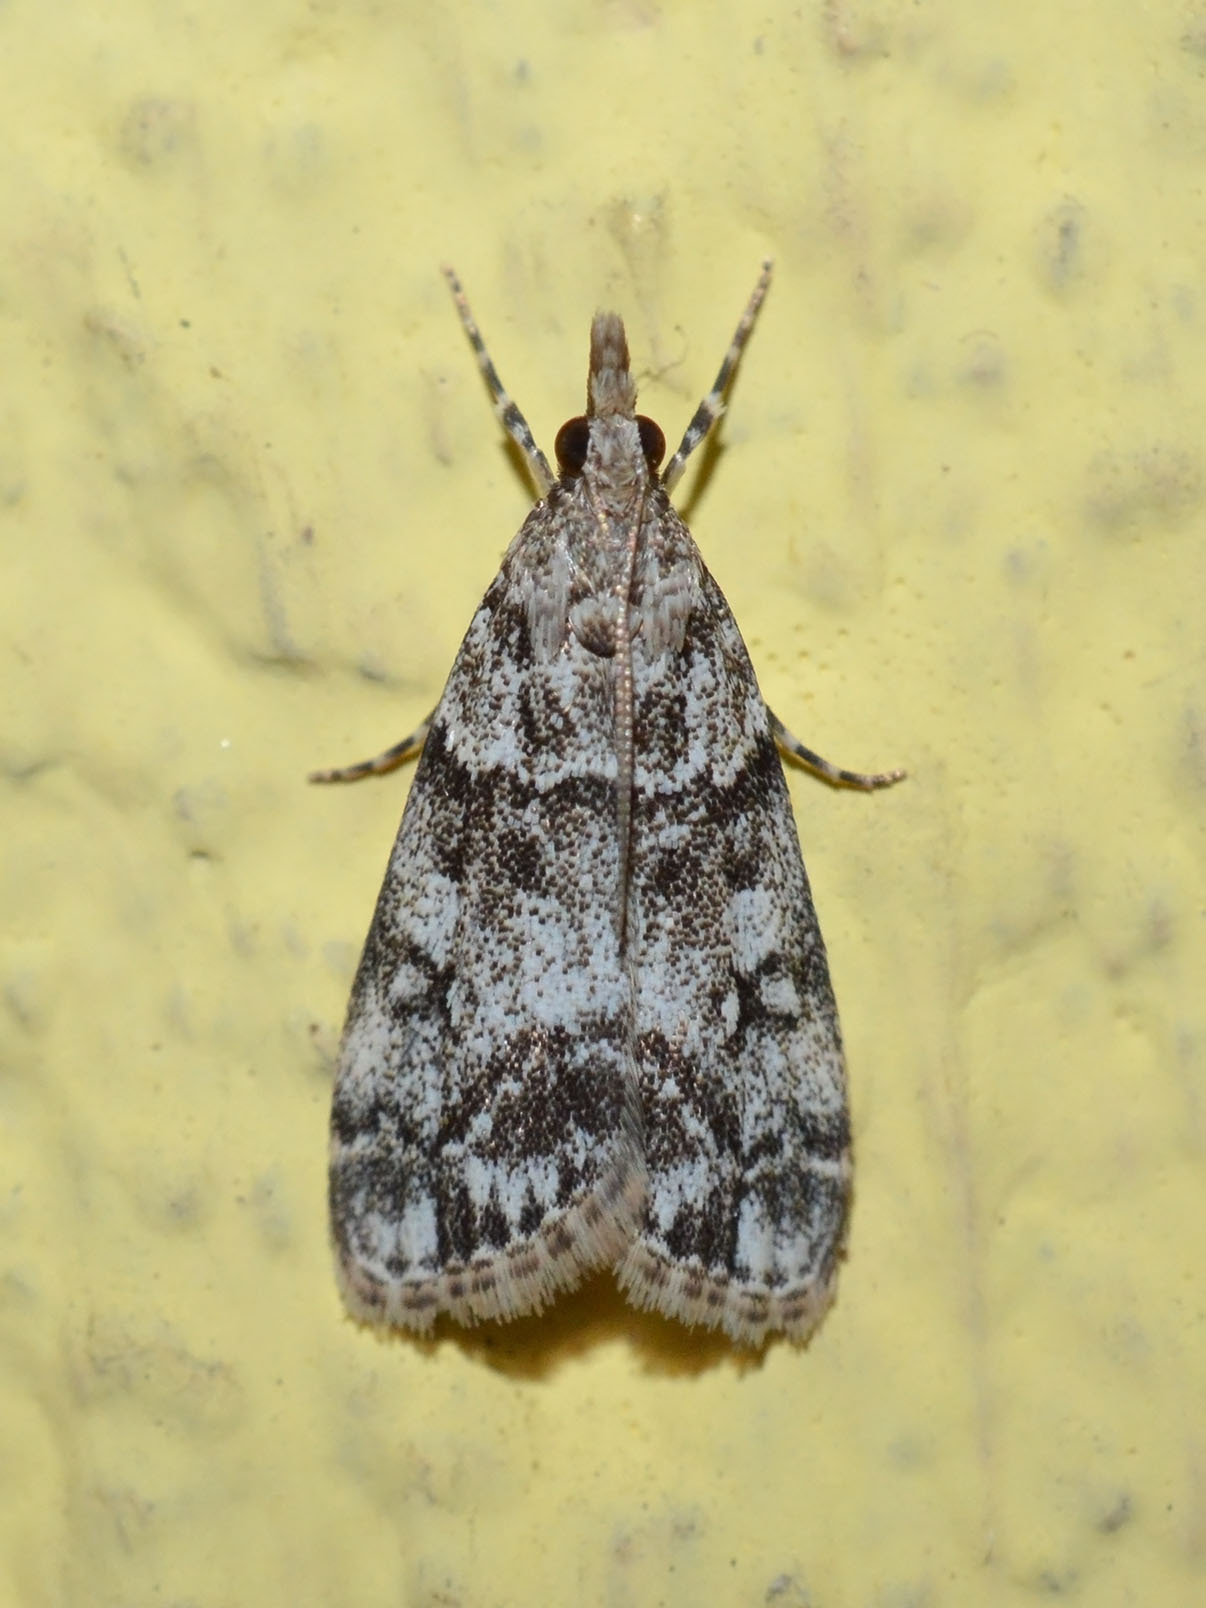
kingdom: Animalia
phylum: Arthropoda
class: Insecta
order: Lepidoptera
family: Crambidae
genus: Eudonia
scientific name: Eudonia lacustrata
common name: Little grey
